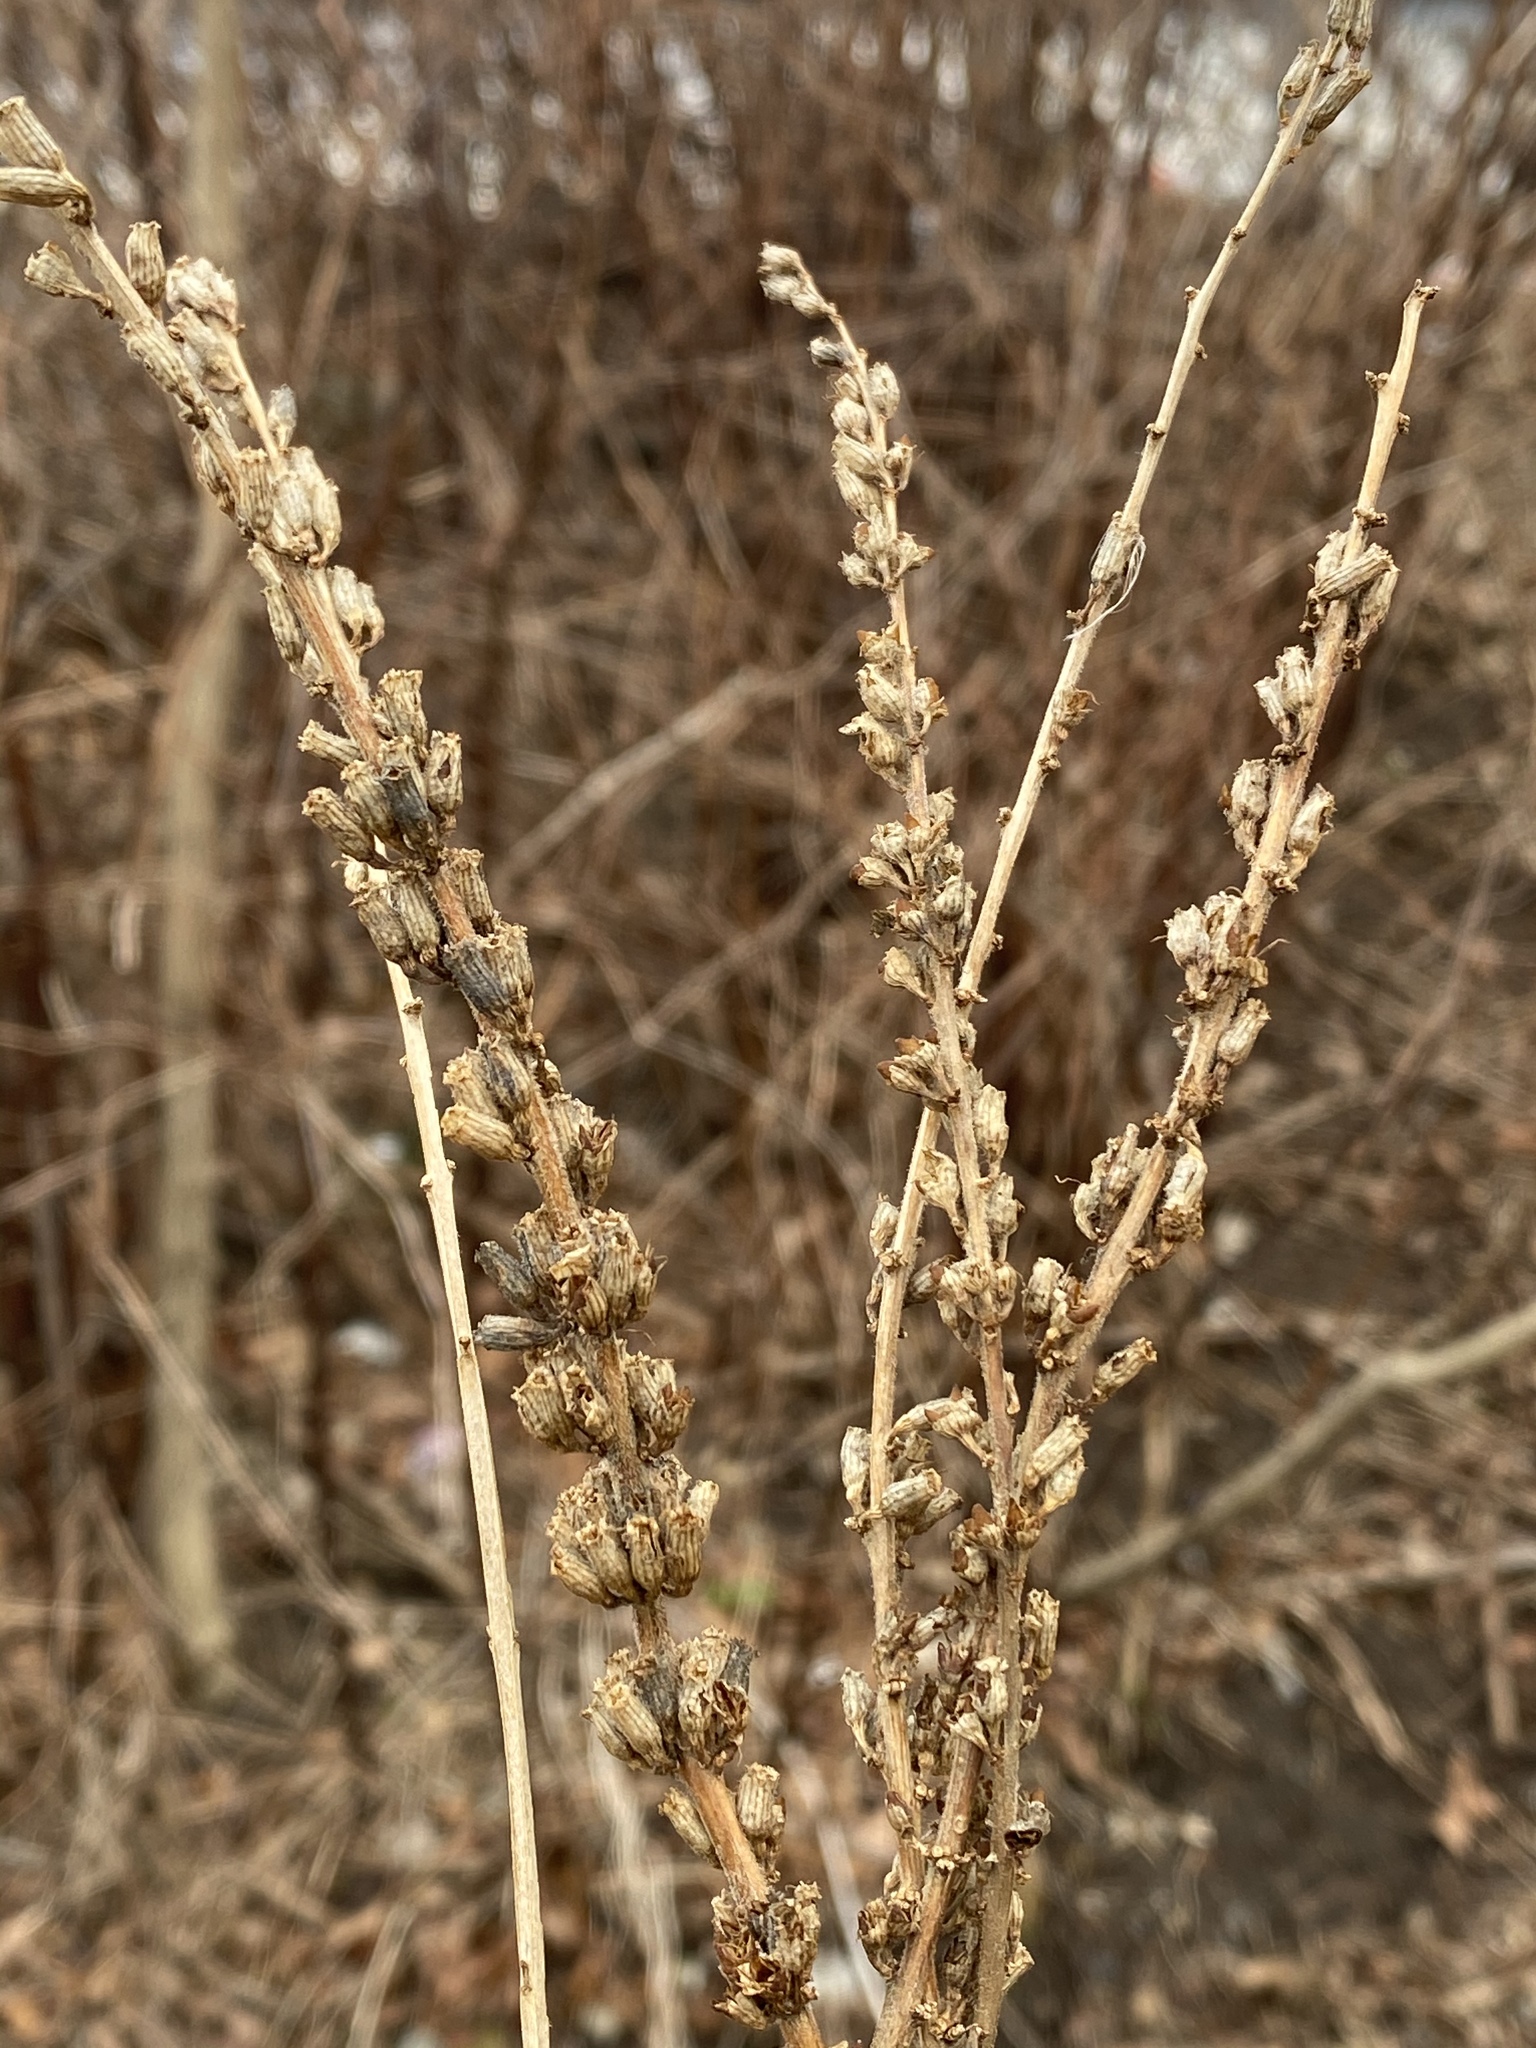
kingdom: Plantae
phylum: Tracheophyta
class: Magnoliopsida
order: Myrtales
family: Lythraceae
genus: Lythrum
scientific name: Lythrum salicaria
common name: Purple loosestrife
